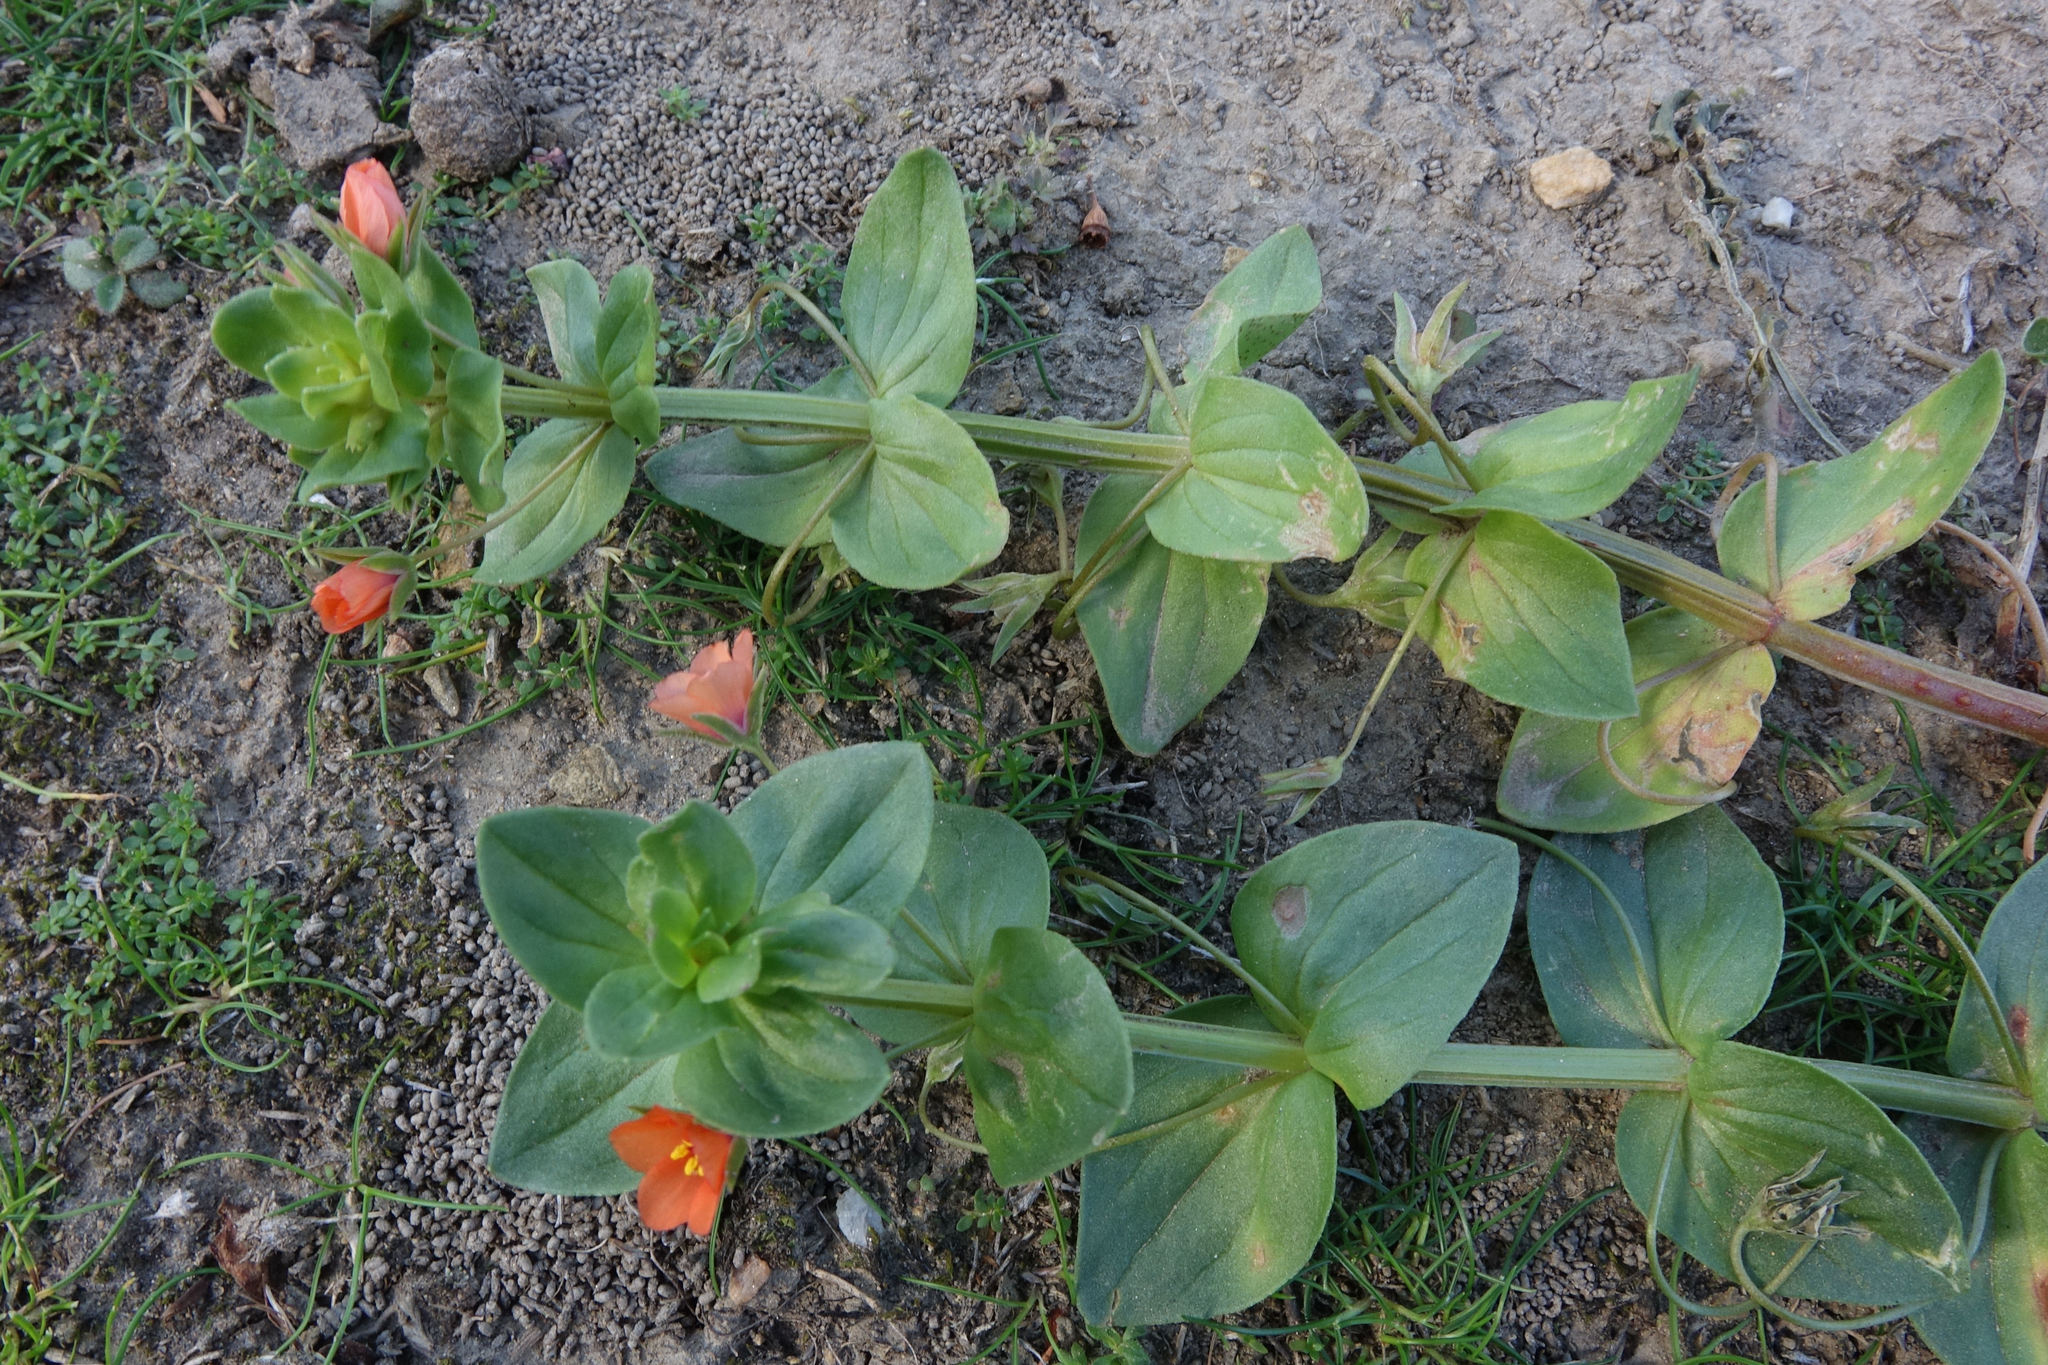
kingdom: Plantae
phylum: Tracheophyta
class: Magnoliopsida
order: Ericales
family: Primulaceae
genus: Lysimachia
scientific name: Lysimachia arvensis
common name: Scarlet pimpernel
